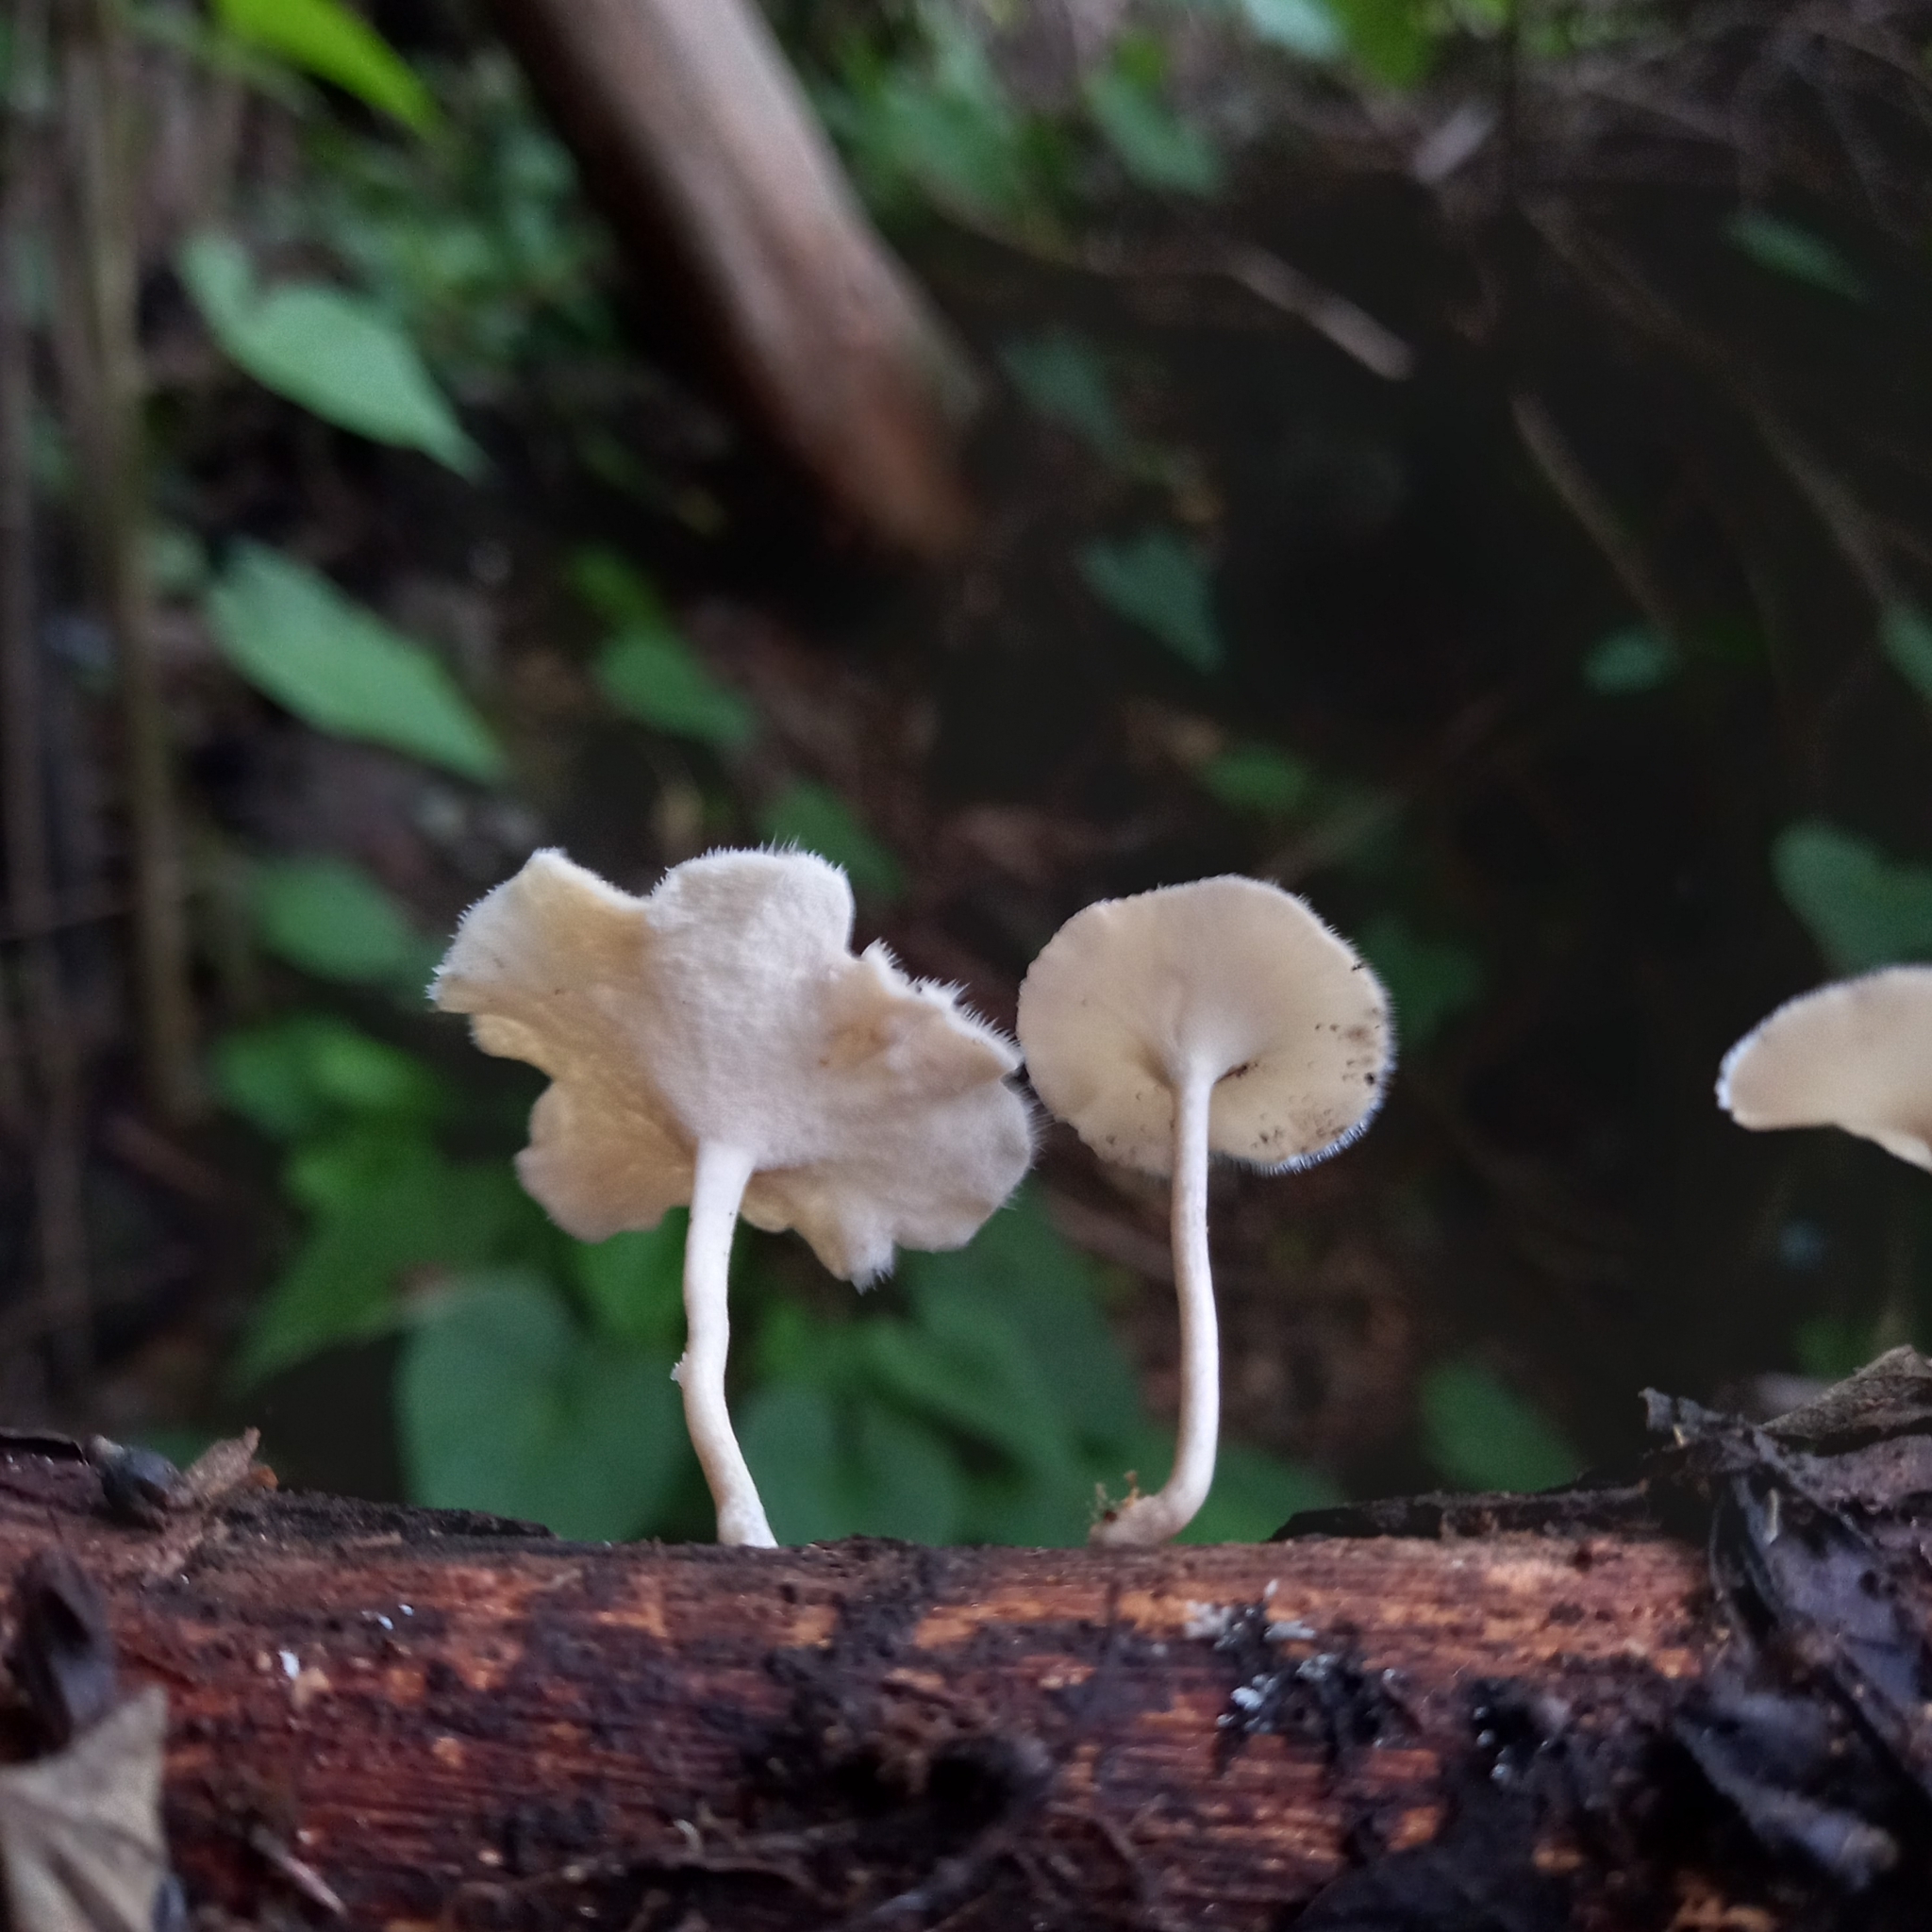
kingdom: Fungi
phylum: Basidiomycota
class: Agaricomycetes
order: Polyporales
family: Polyporaceae
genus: Lentinus
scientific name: Lentinus flexipes
